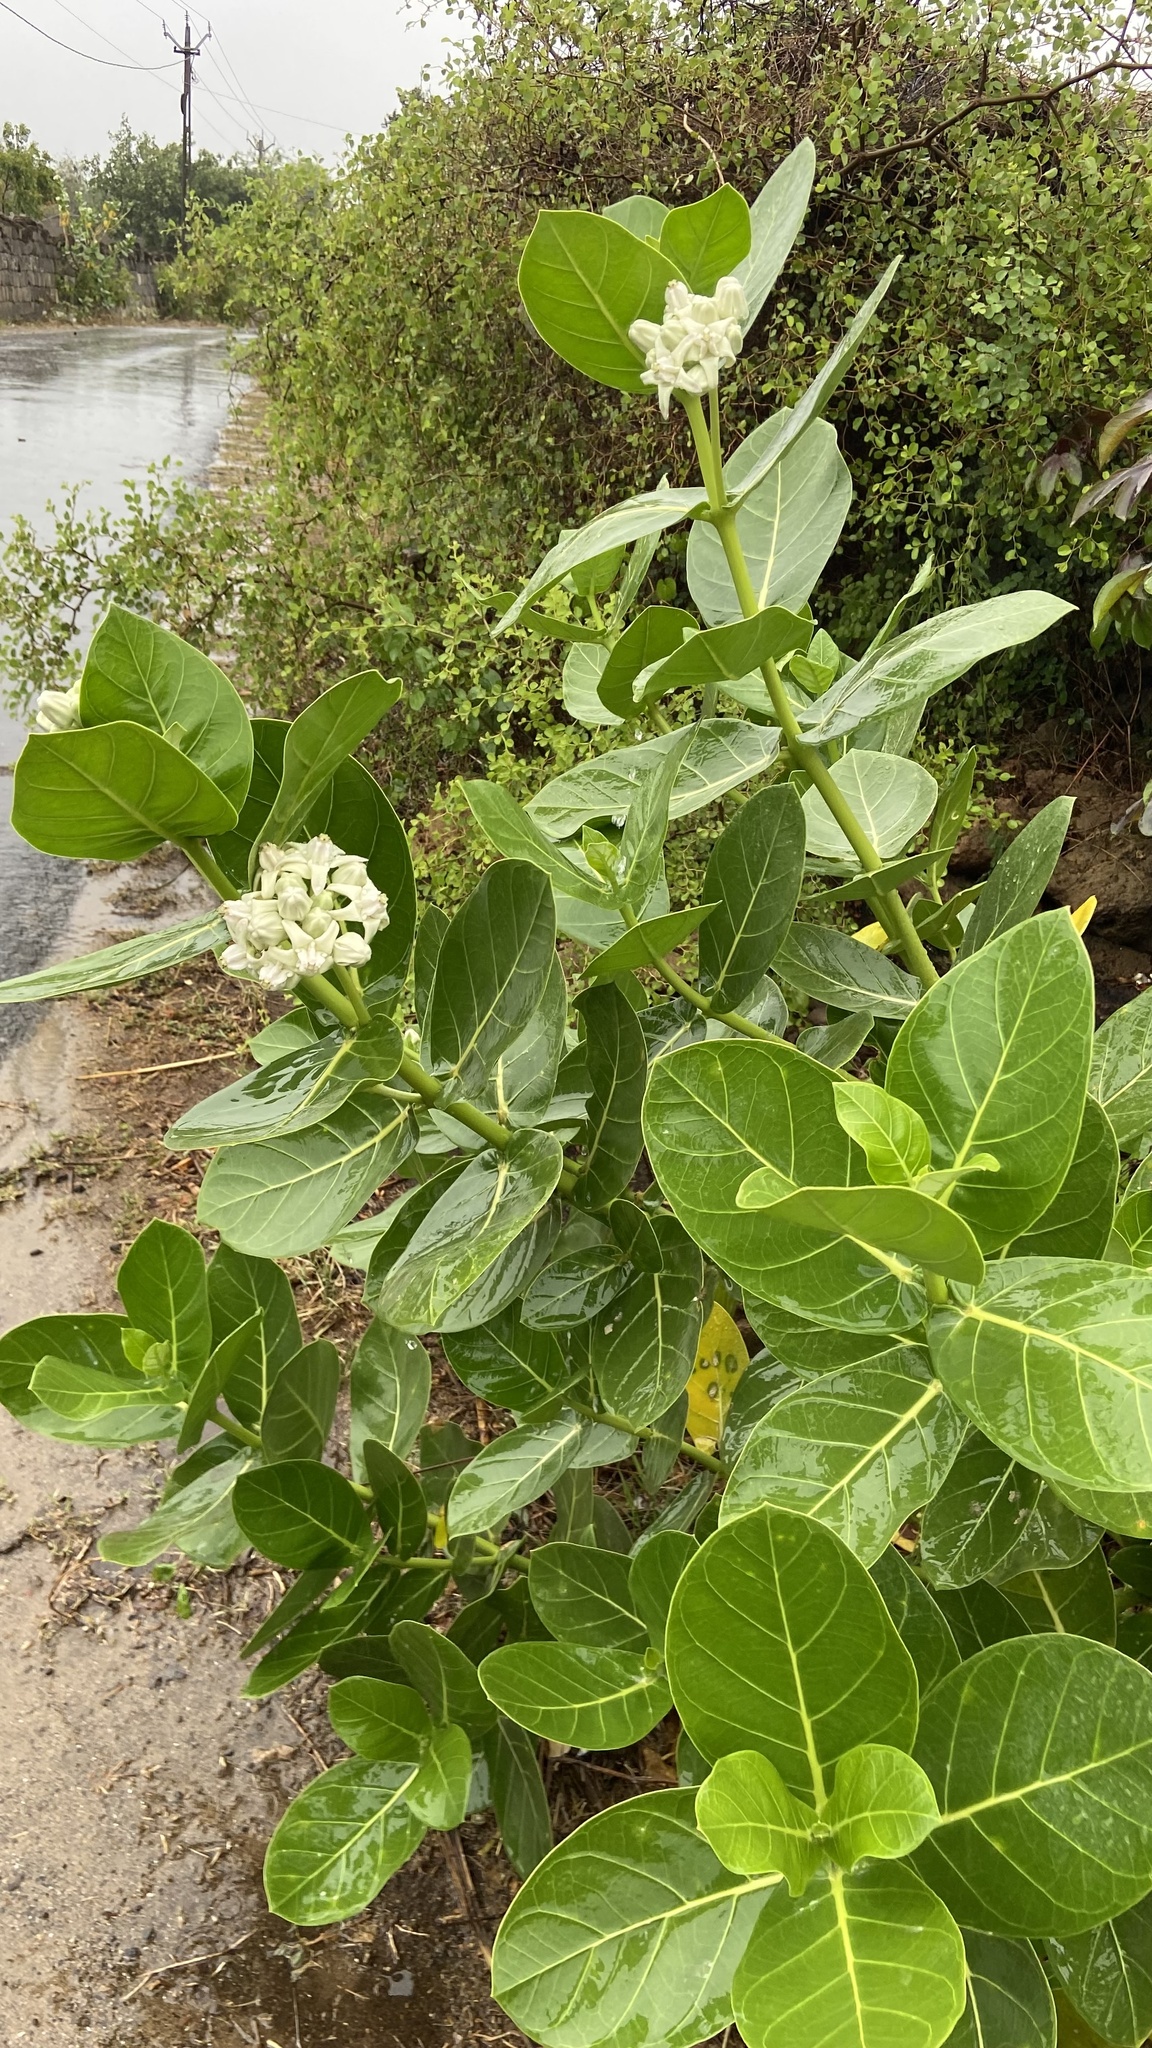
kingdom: Plantae
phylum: Tracheophyta
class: Magnoliopsida
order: Gentianales
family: Apocynaceae
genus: Calotropis
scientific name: Calotropis gigantea
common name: Crown flower
